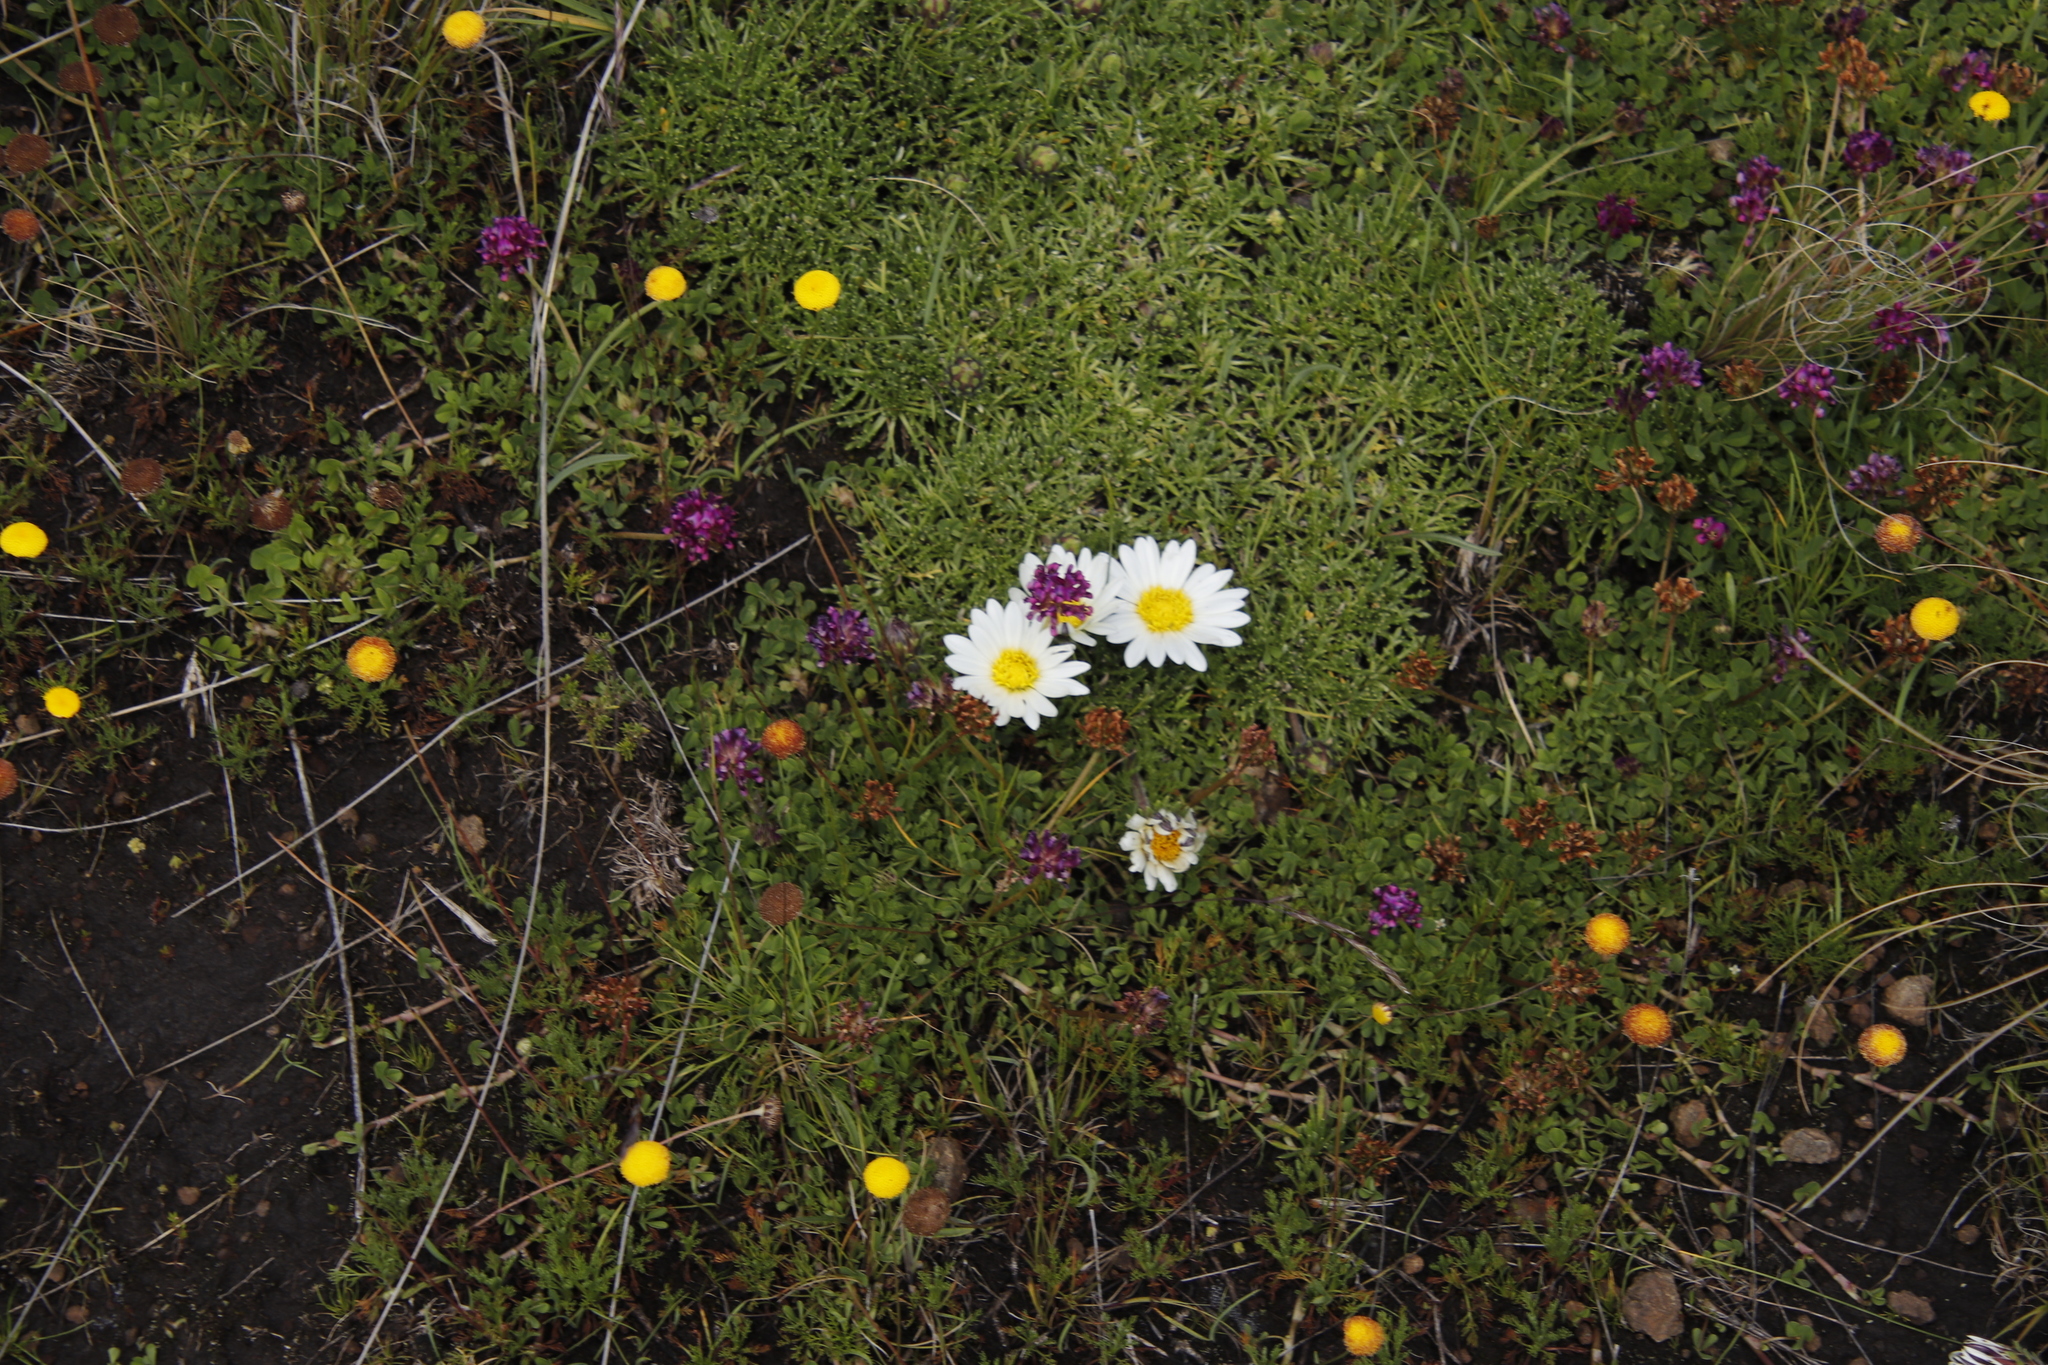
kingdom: Plantae
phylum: Tracheophyta
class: Magnoliopsida
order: Asterales
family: Asteraceae
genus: Roessleria
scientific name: Roessleria armerioides
